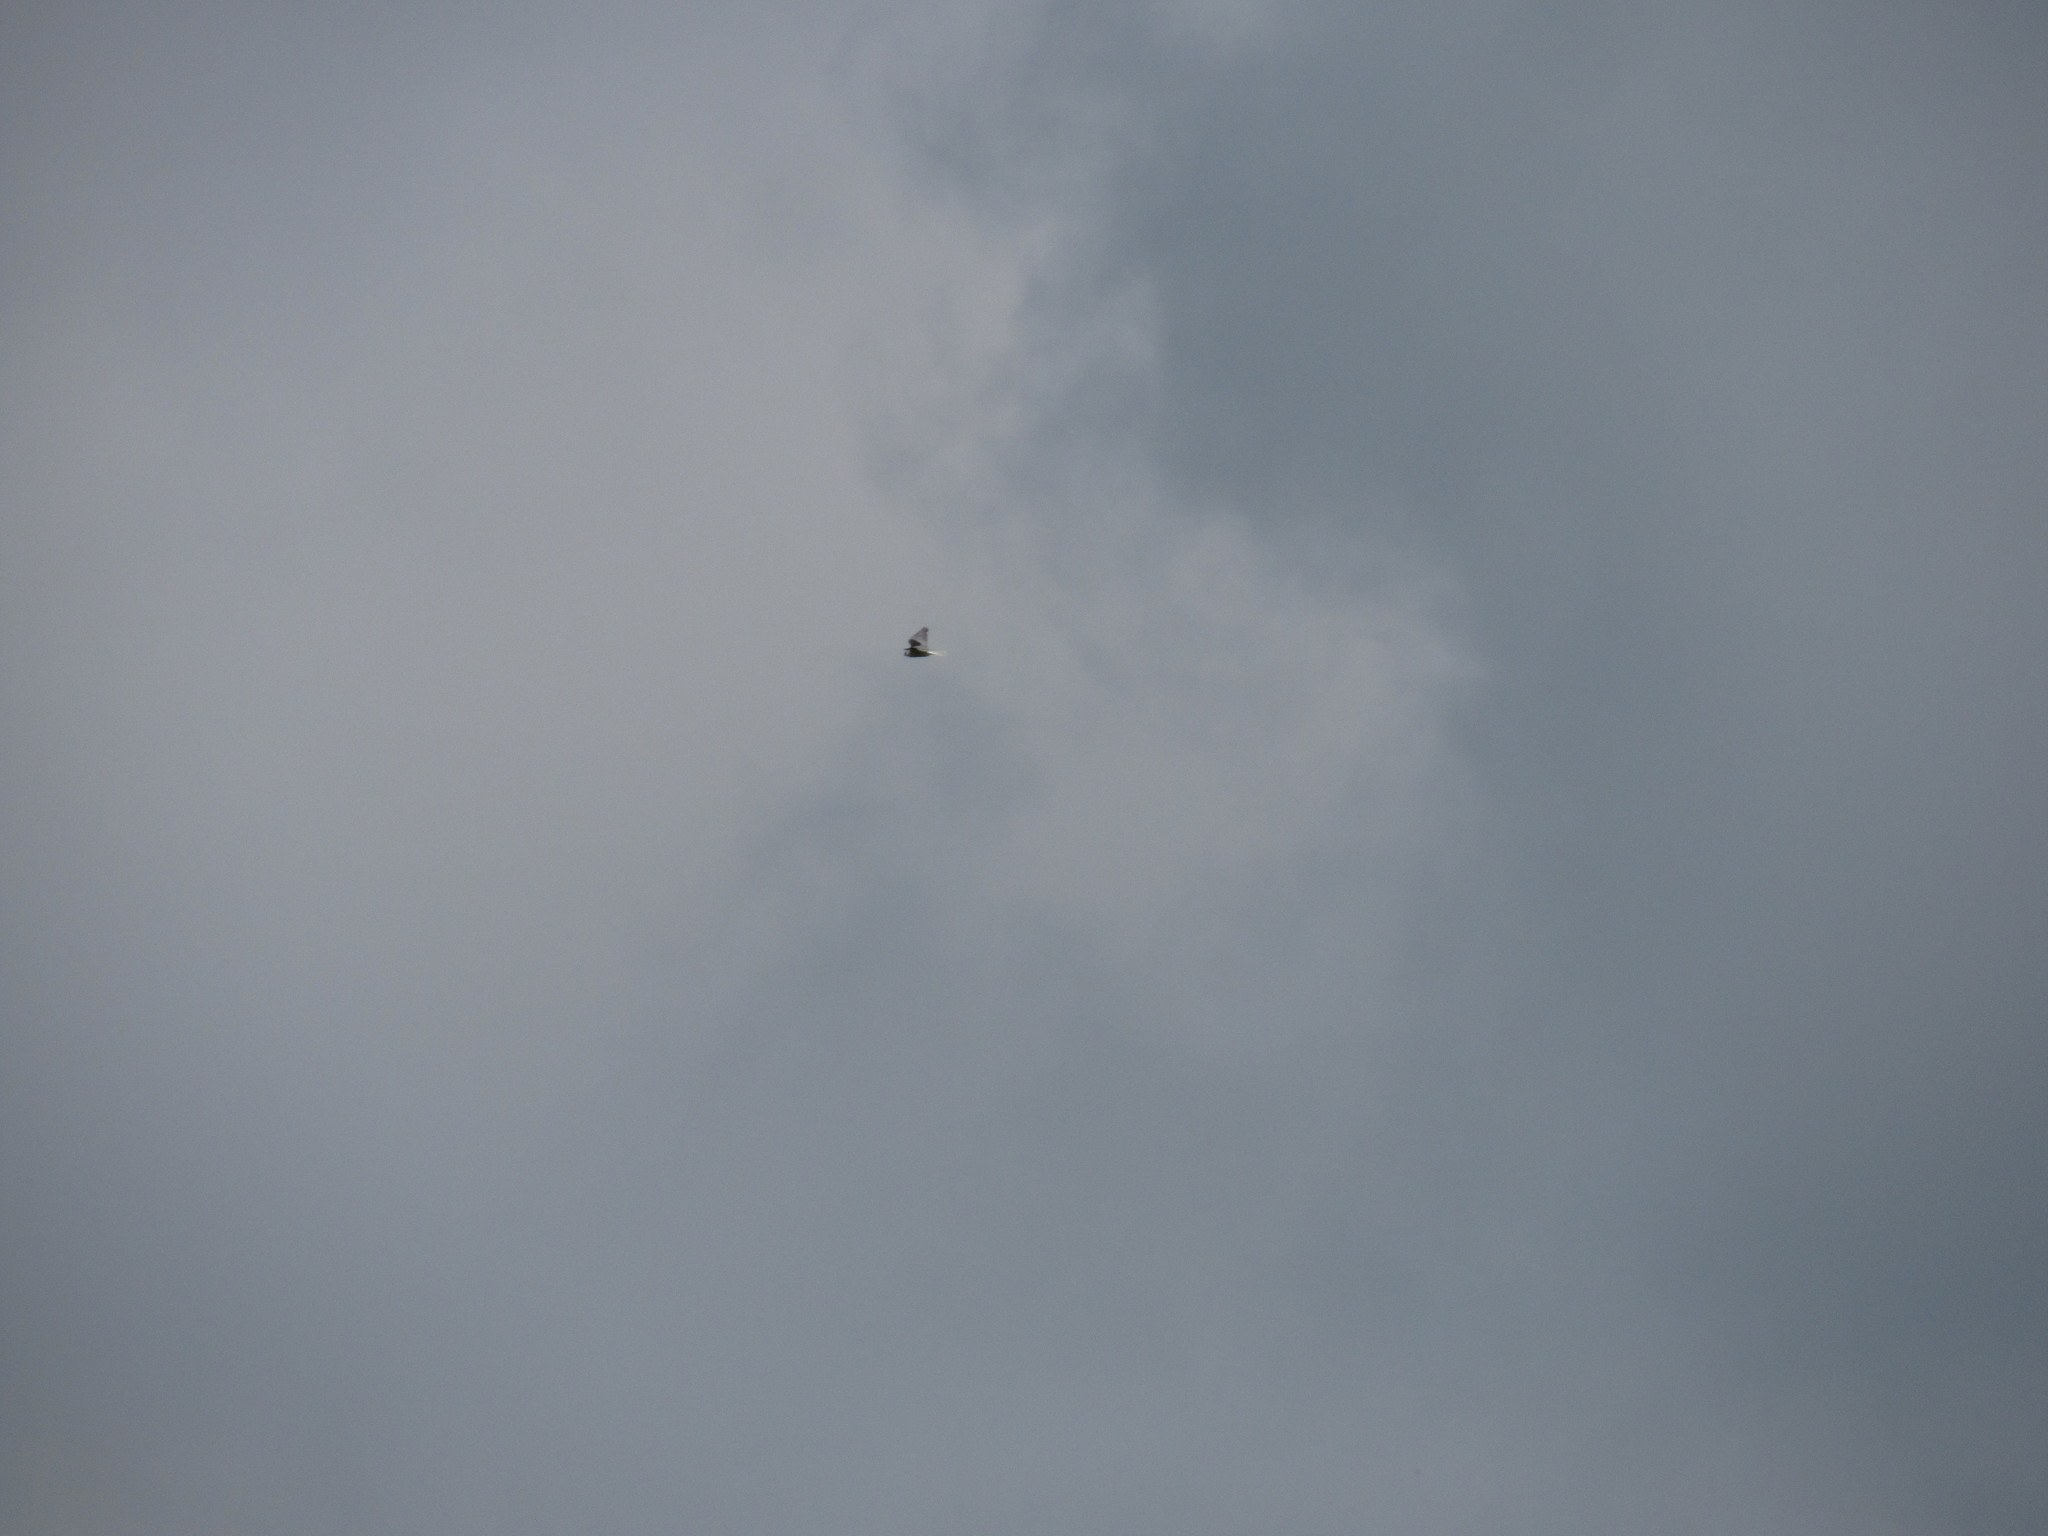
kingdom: Animalia
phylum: Chordata
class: Aves
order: Accipitriformes
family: Accipitridae
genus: Elanus
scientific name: Elanus leucurus
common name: White-tailed kite
